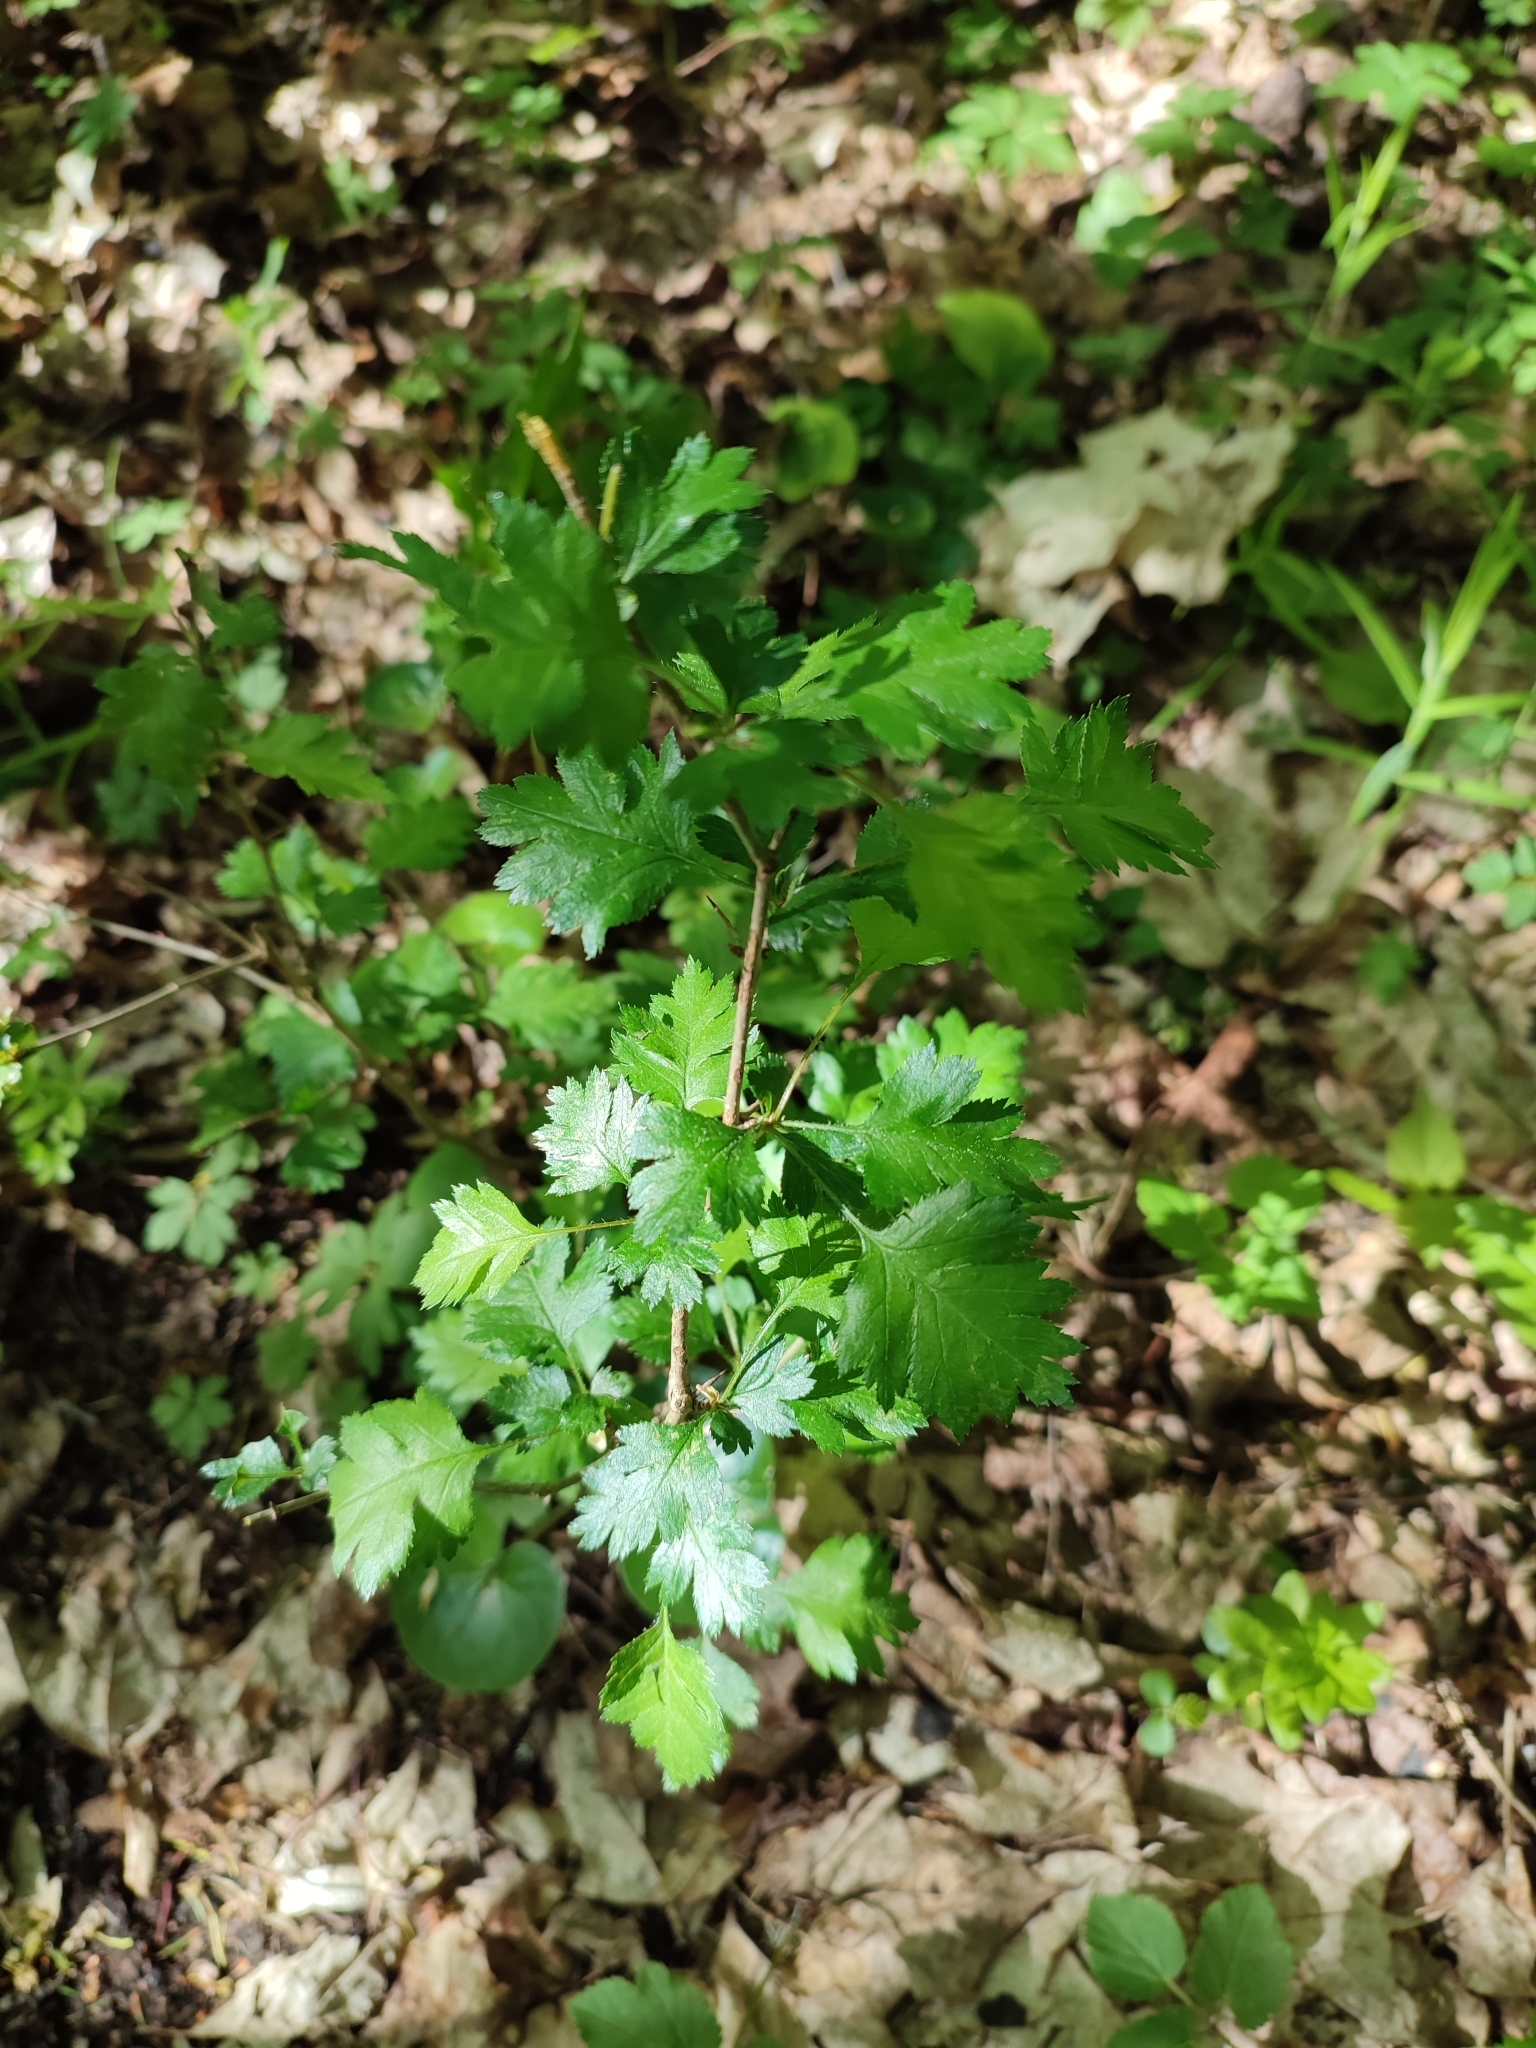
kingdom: Plantae
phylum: Tracheophyta
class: Magnoliopsida
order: Rosales
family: Rosaceae
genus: Crataegus
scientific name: Crataegus monogyna
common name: Hawthorn
